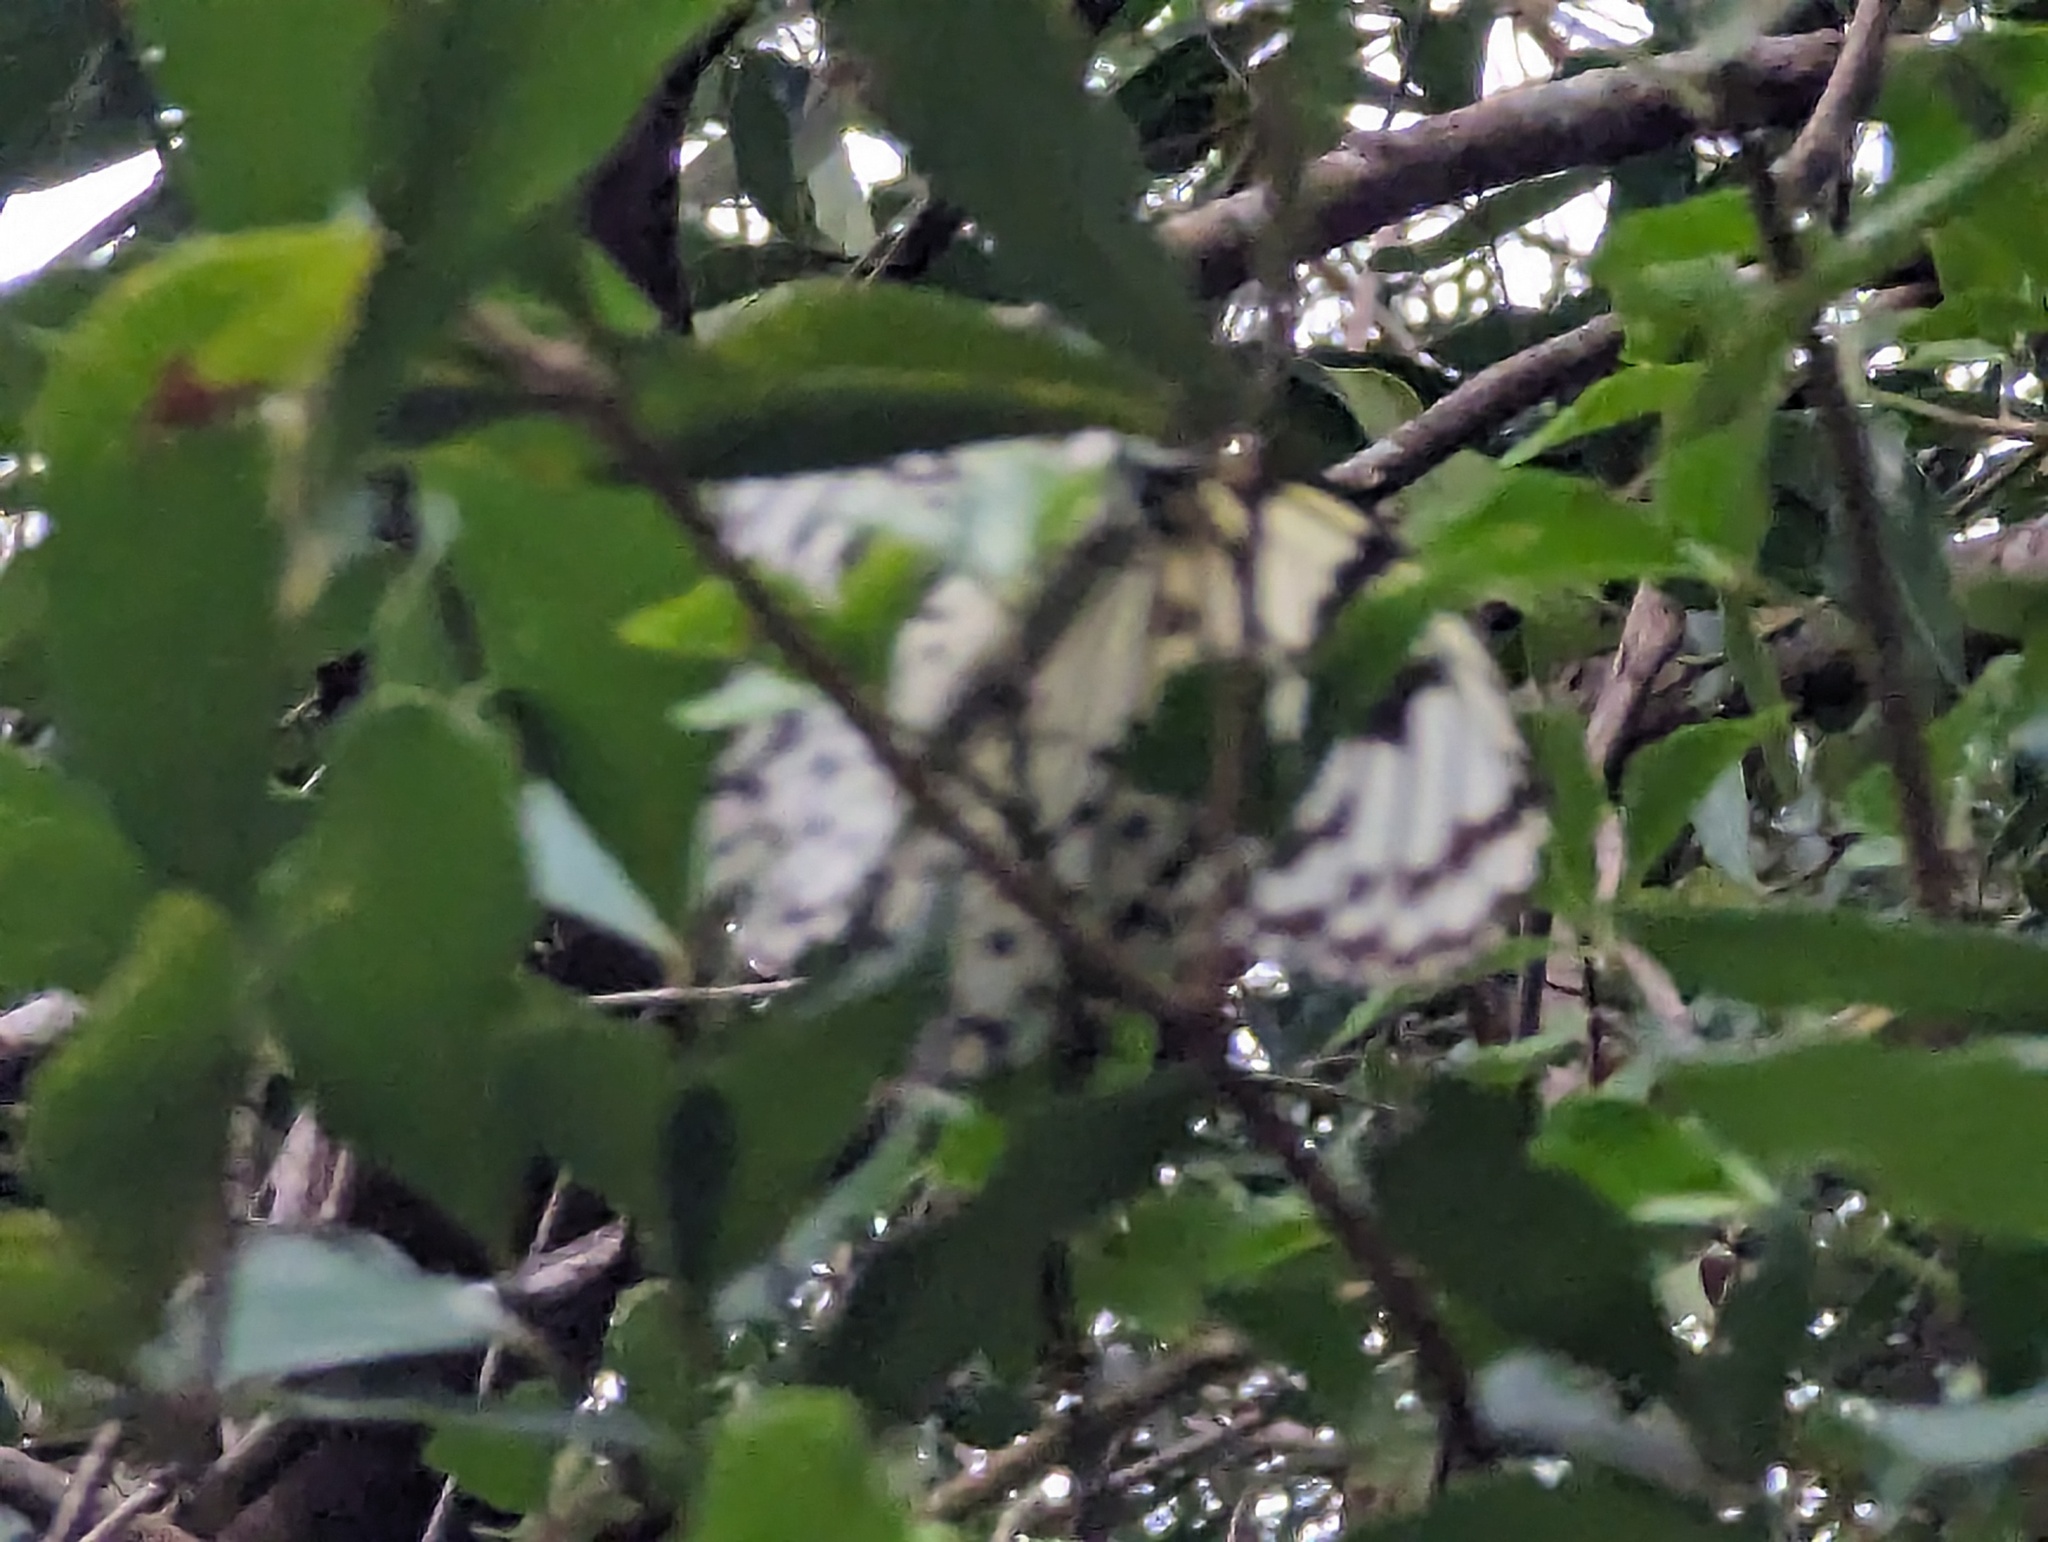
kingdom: Animalia
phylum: Arthropoda
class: Insecta
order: Lepidoptera
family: Nymphalidae
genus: Idea
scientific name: Idea leuconoe
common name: Rice paper butterfly
